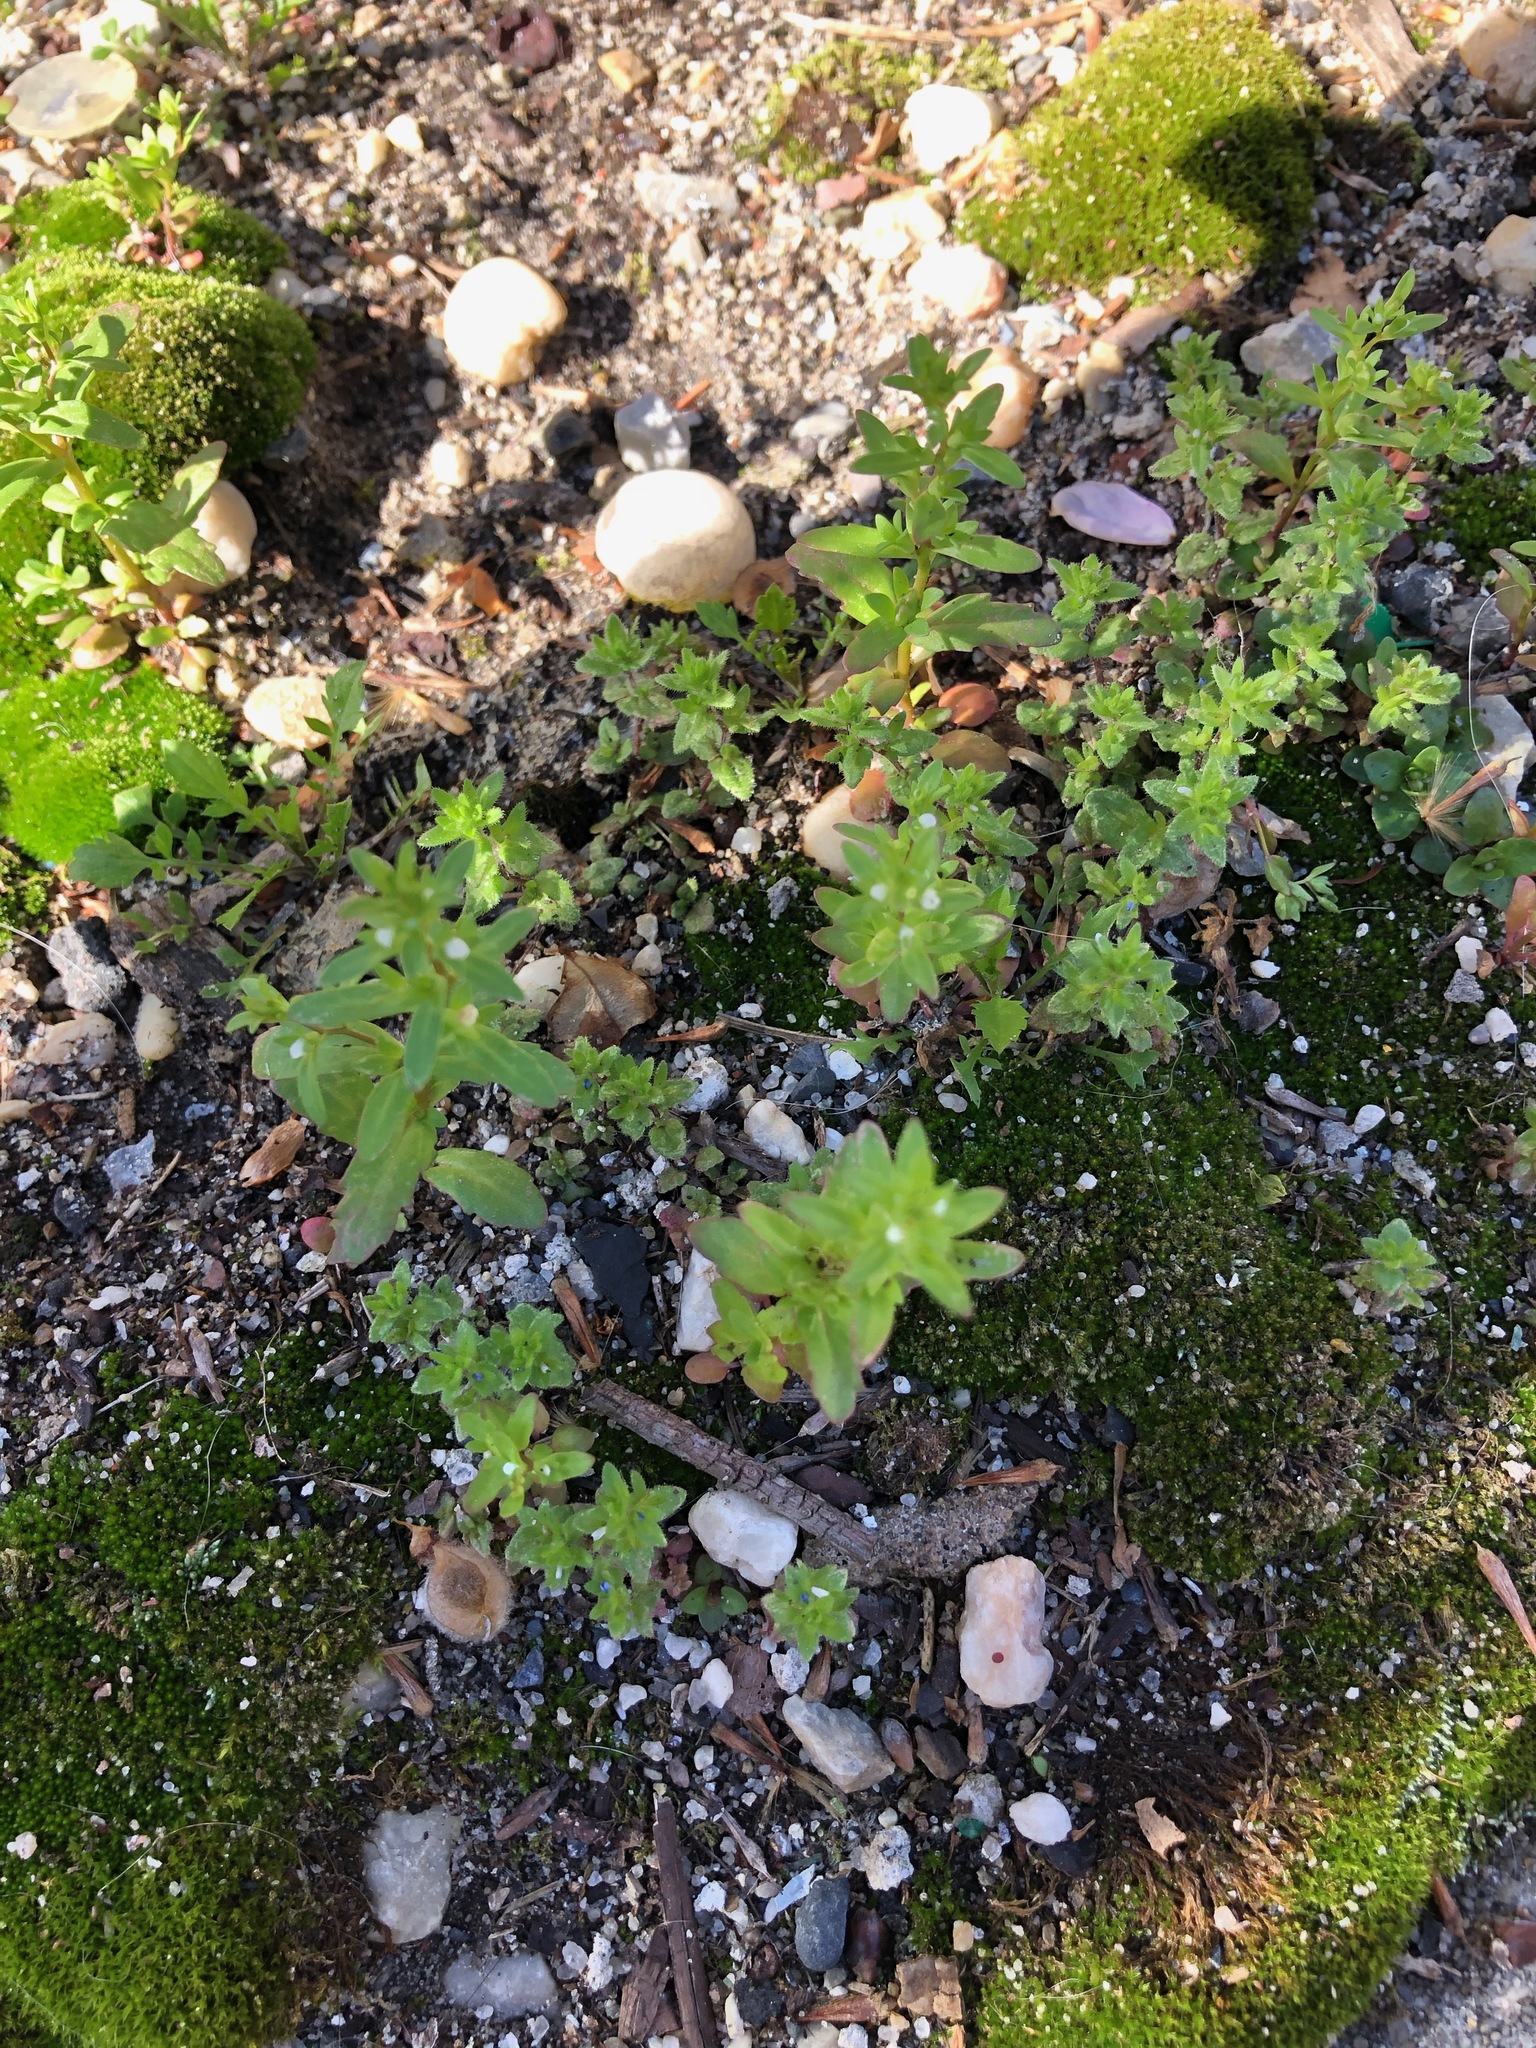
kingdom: Plantae
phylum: Tracheophyta
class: Magnoliopsida
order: Lamiales
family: Plantaginaceae
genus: Veronica
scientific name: Veronica arvensis
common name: Corn speedwell
